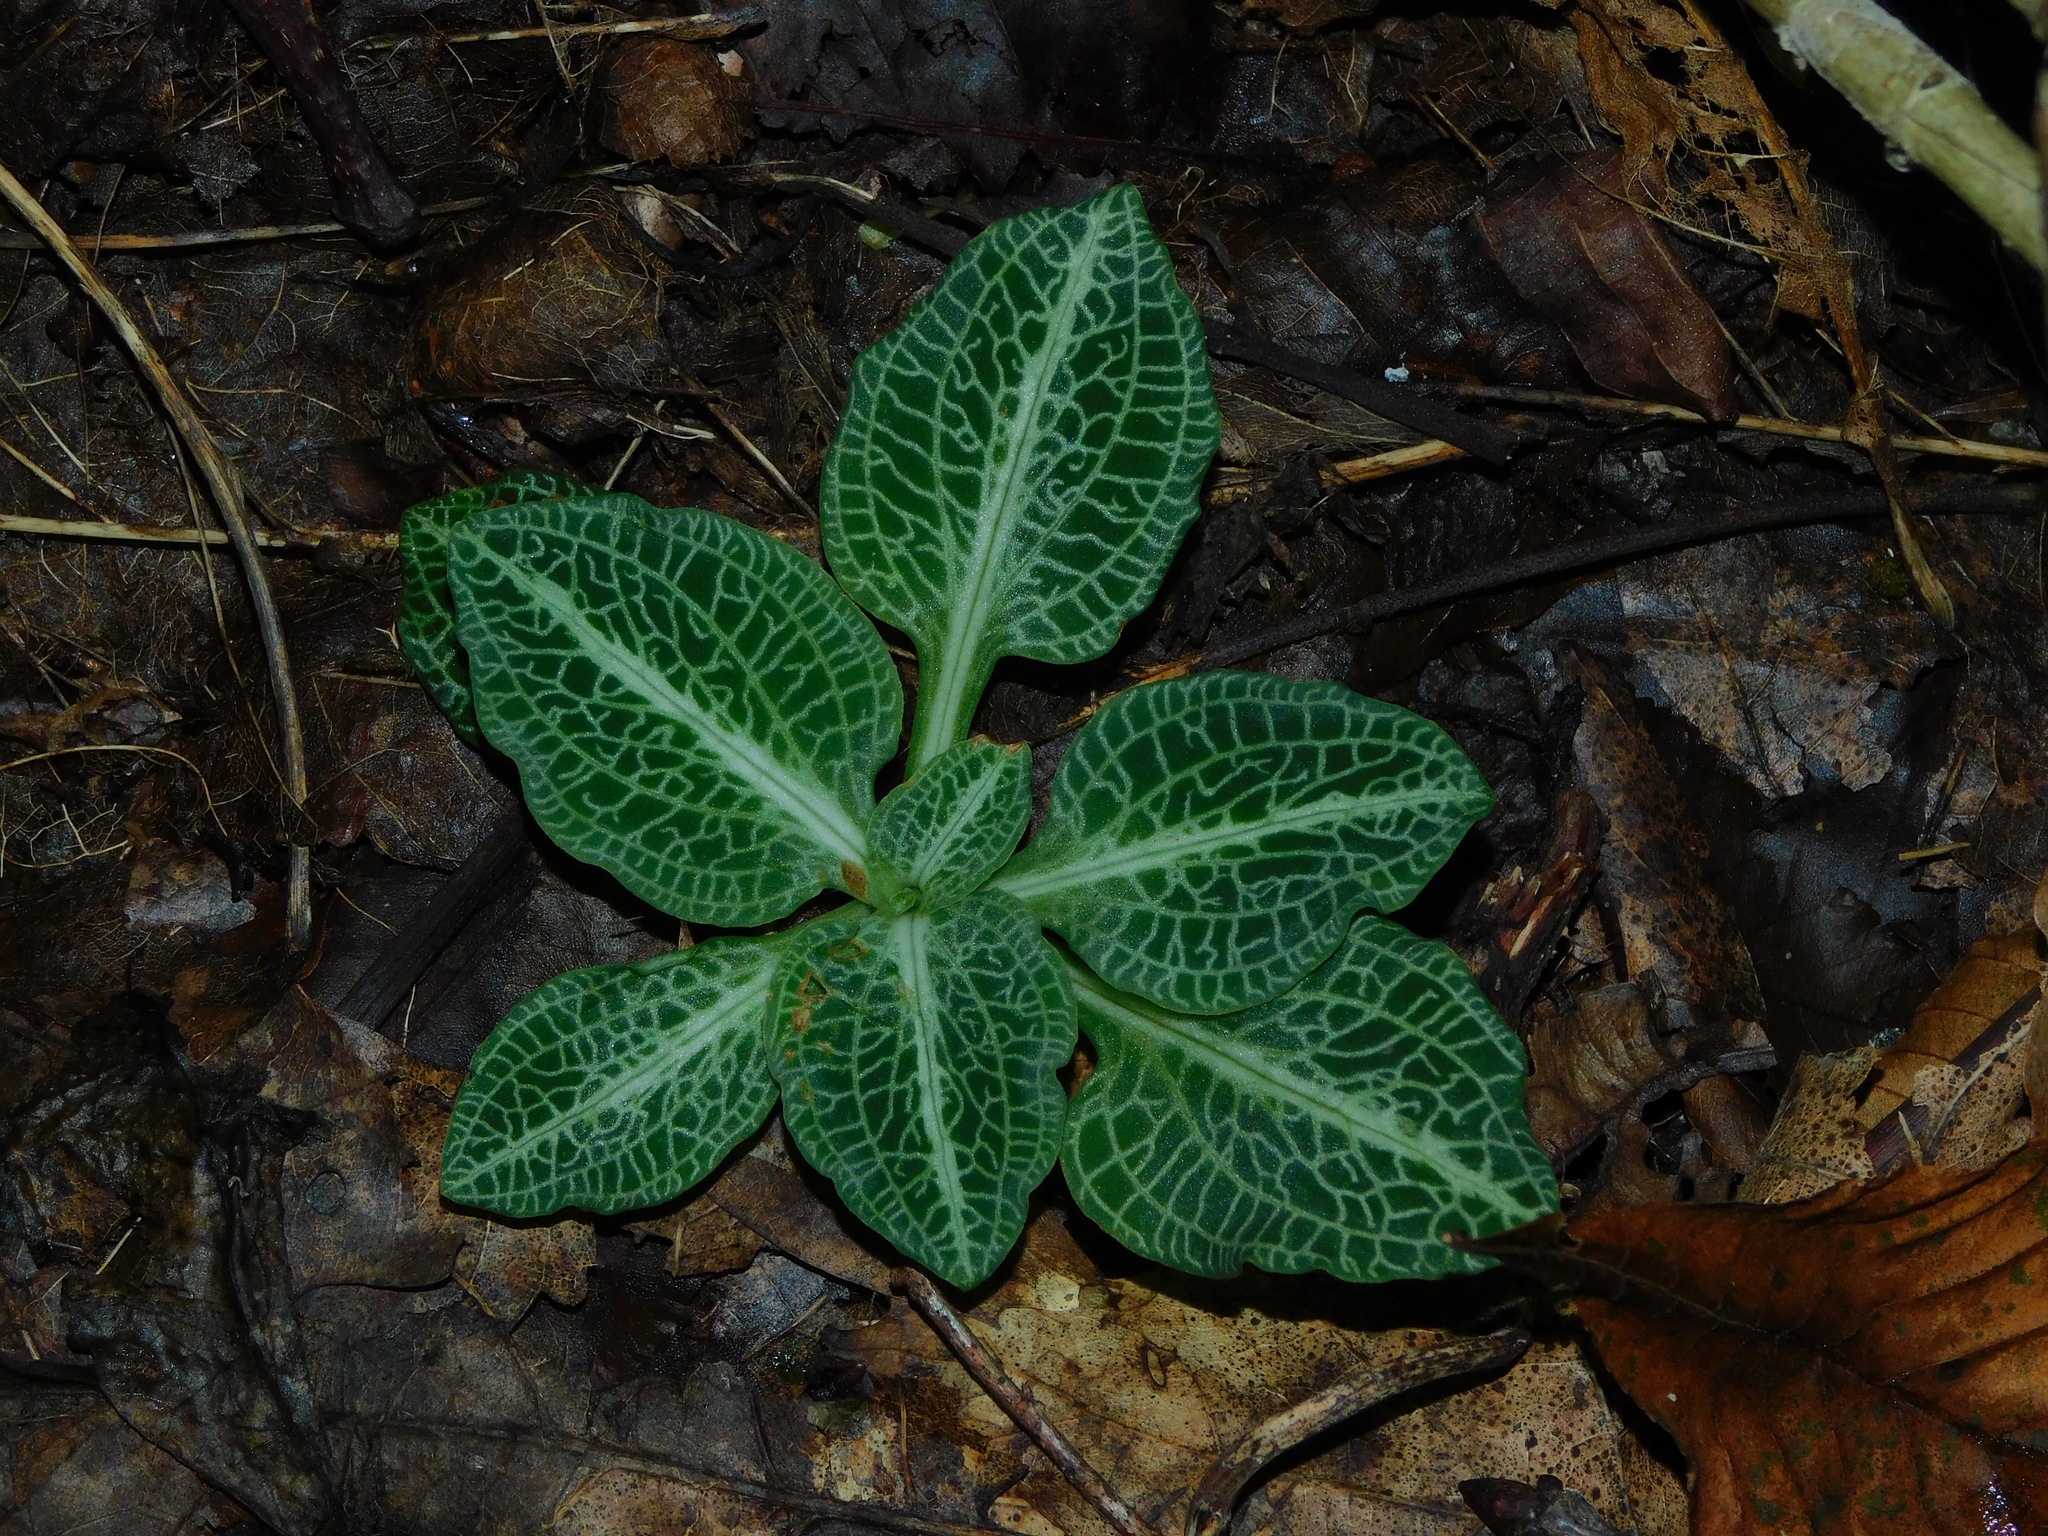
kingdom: Plantae
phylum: Tracheophyta
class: Liliopsida
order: Asparagales
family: Orchidaceae
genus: Goodyera
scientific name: Goodyera pubescens
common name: Downy rattlesnake-plantain
